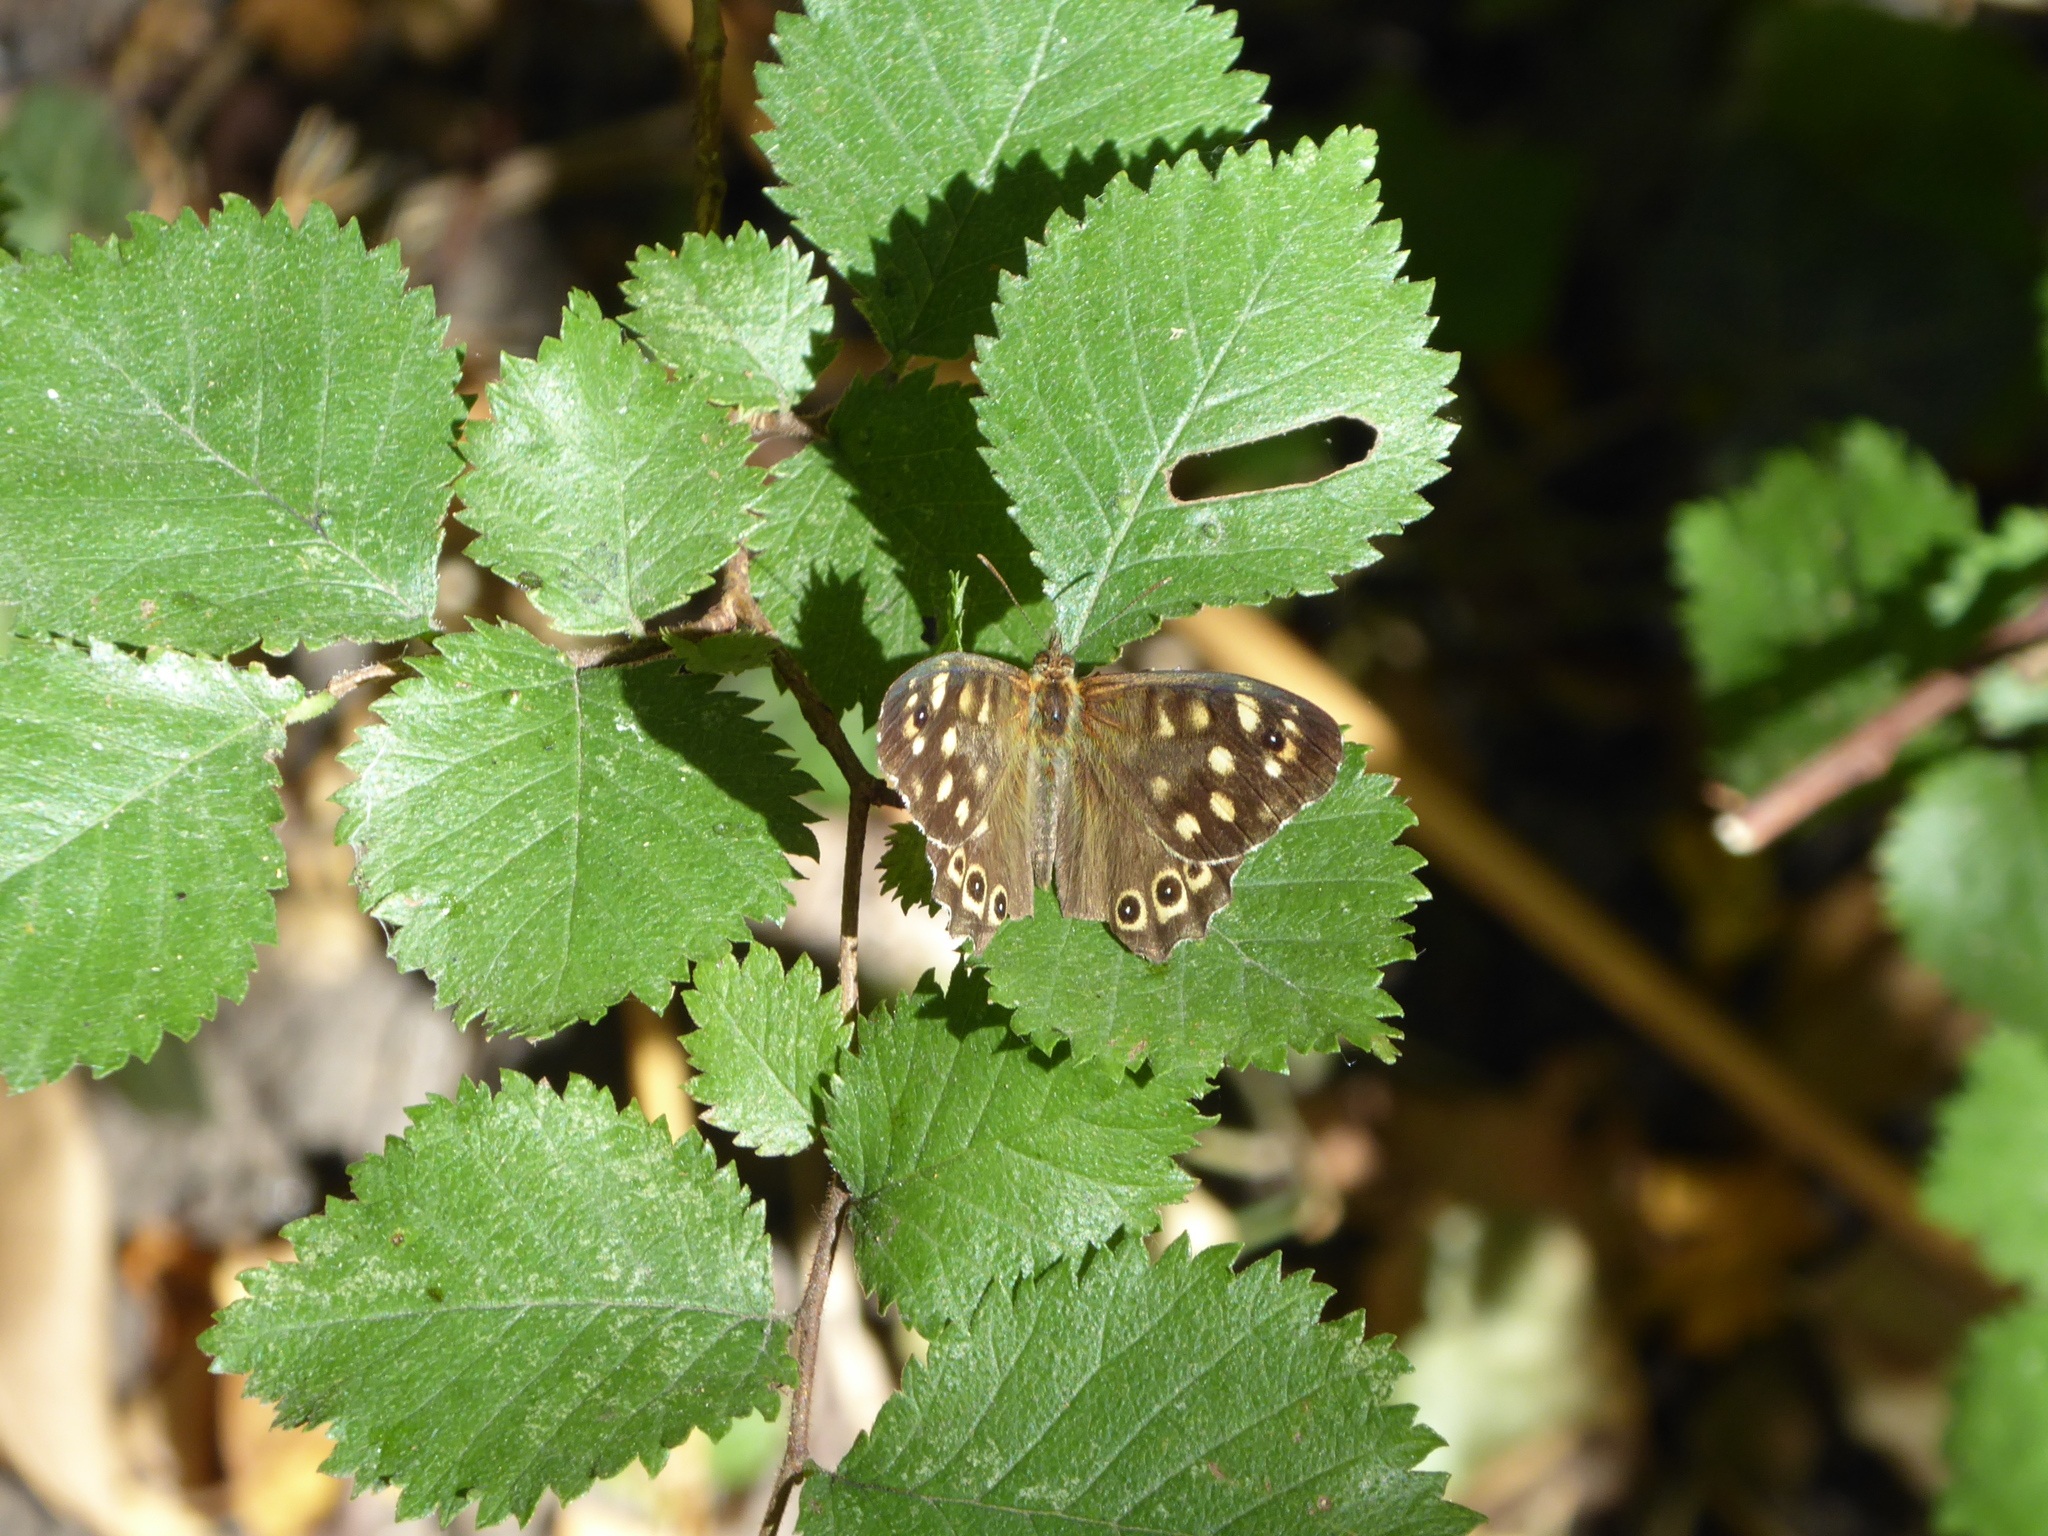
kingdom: Animalia
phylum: Arthropoda
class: Insecta
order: Lepidoptera
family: Nymphalidae
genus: Pararge
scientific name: Pararge aegeria
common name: Speckled wood
